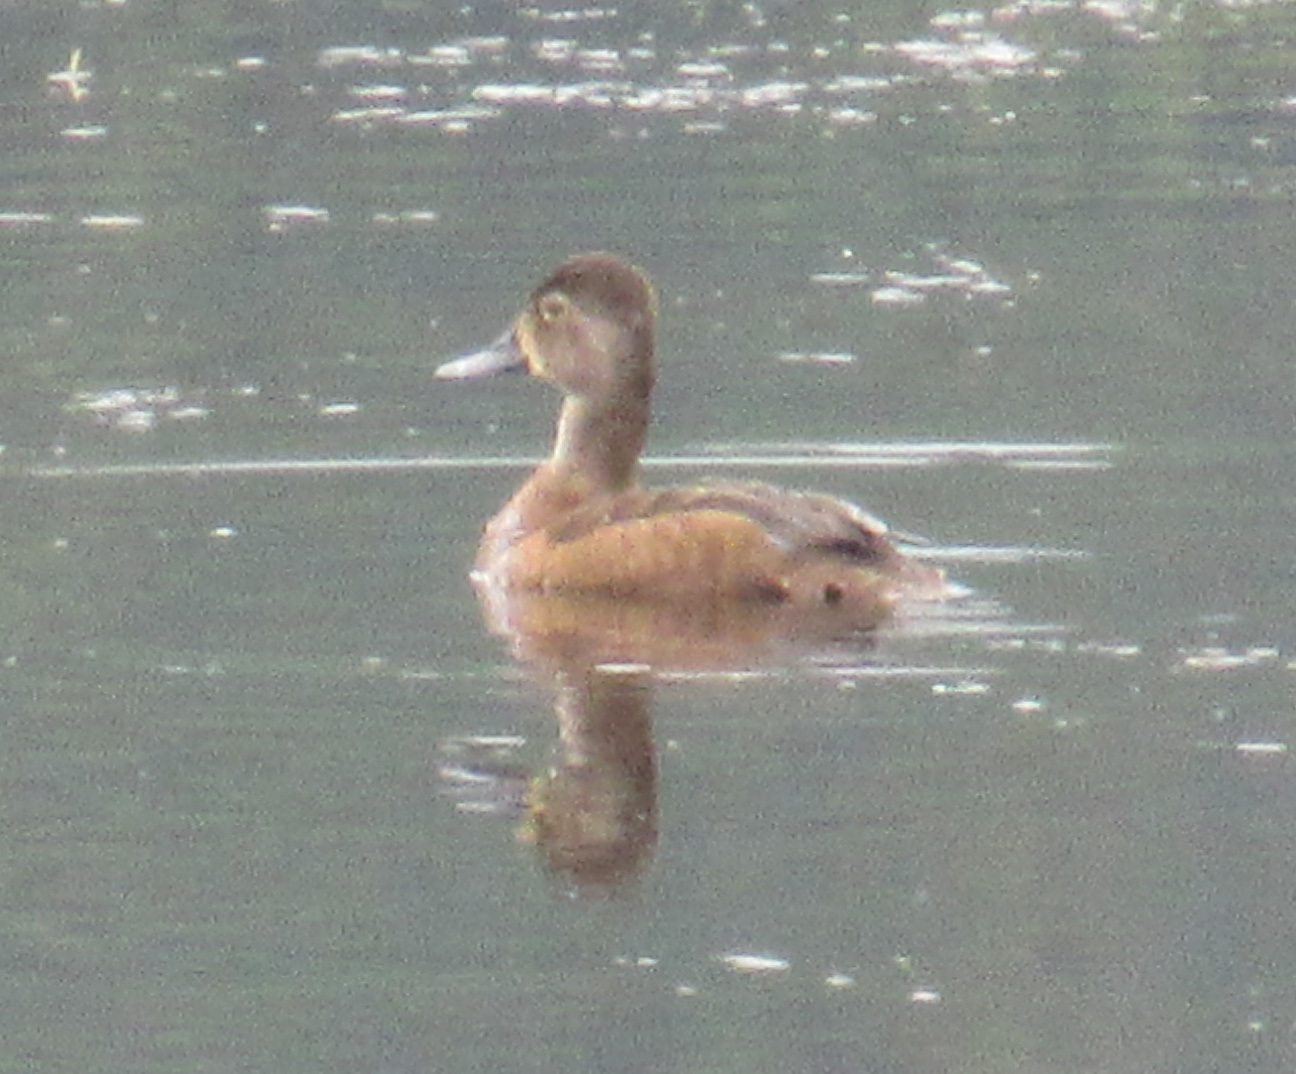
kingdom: Animalia
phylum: Chordata
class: Aves
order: Anseriformes
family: Anatidae
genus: Aythya
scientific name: Aythya collaris
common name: Ring-necked duck
